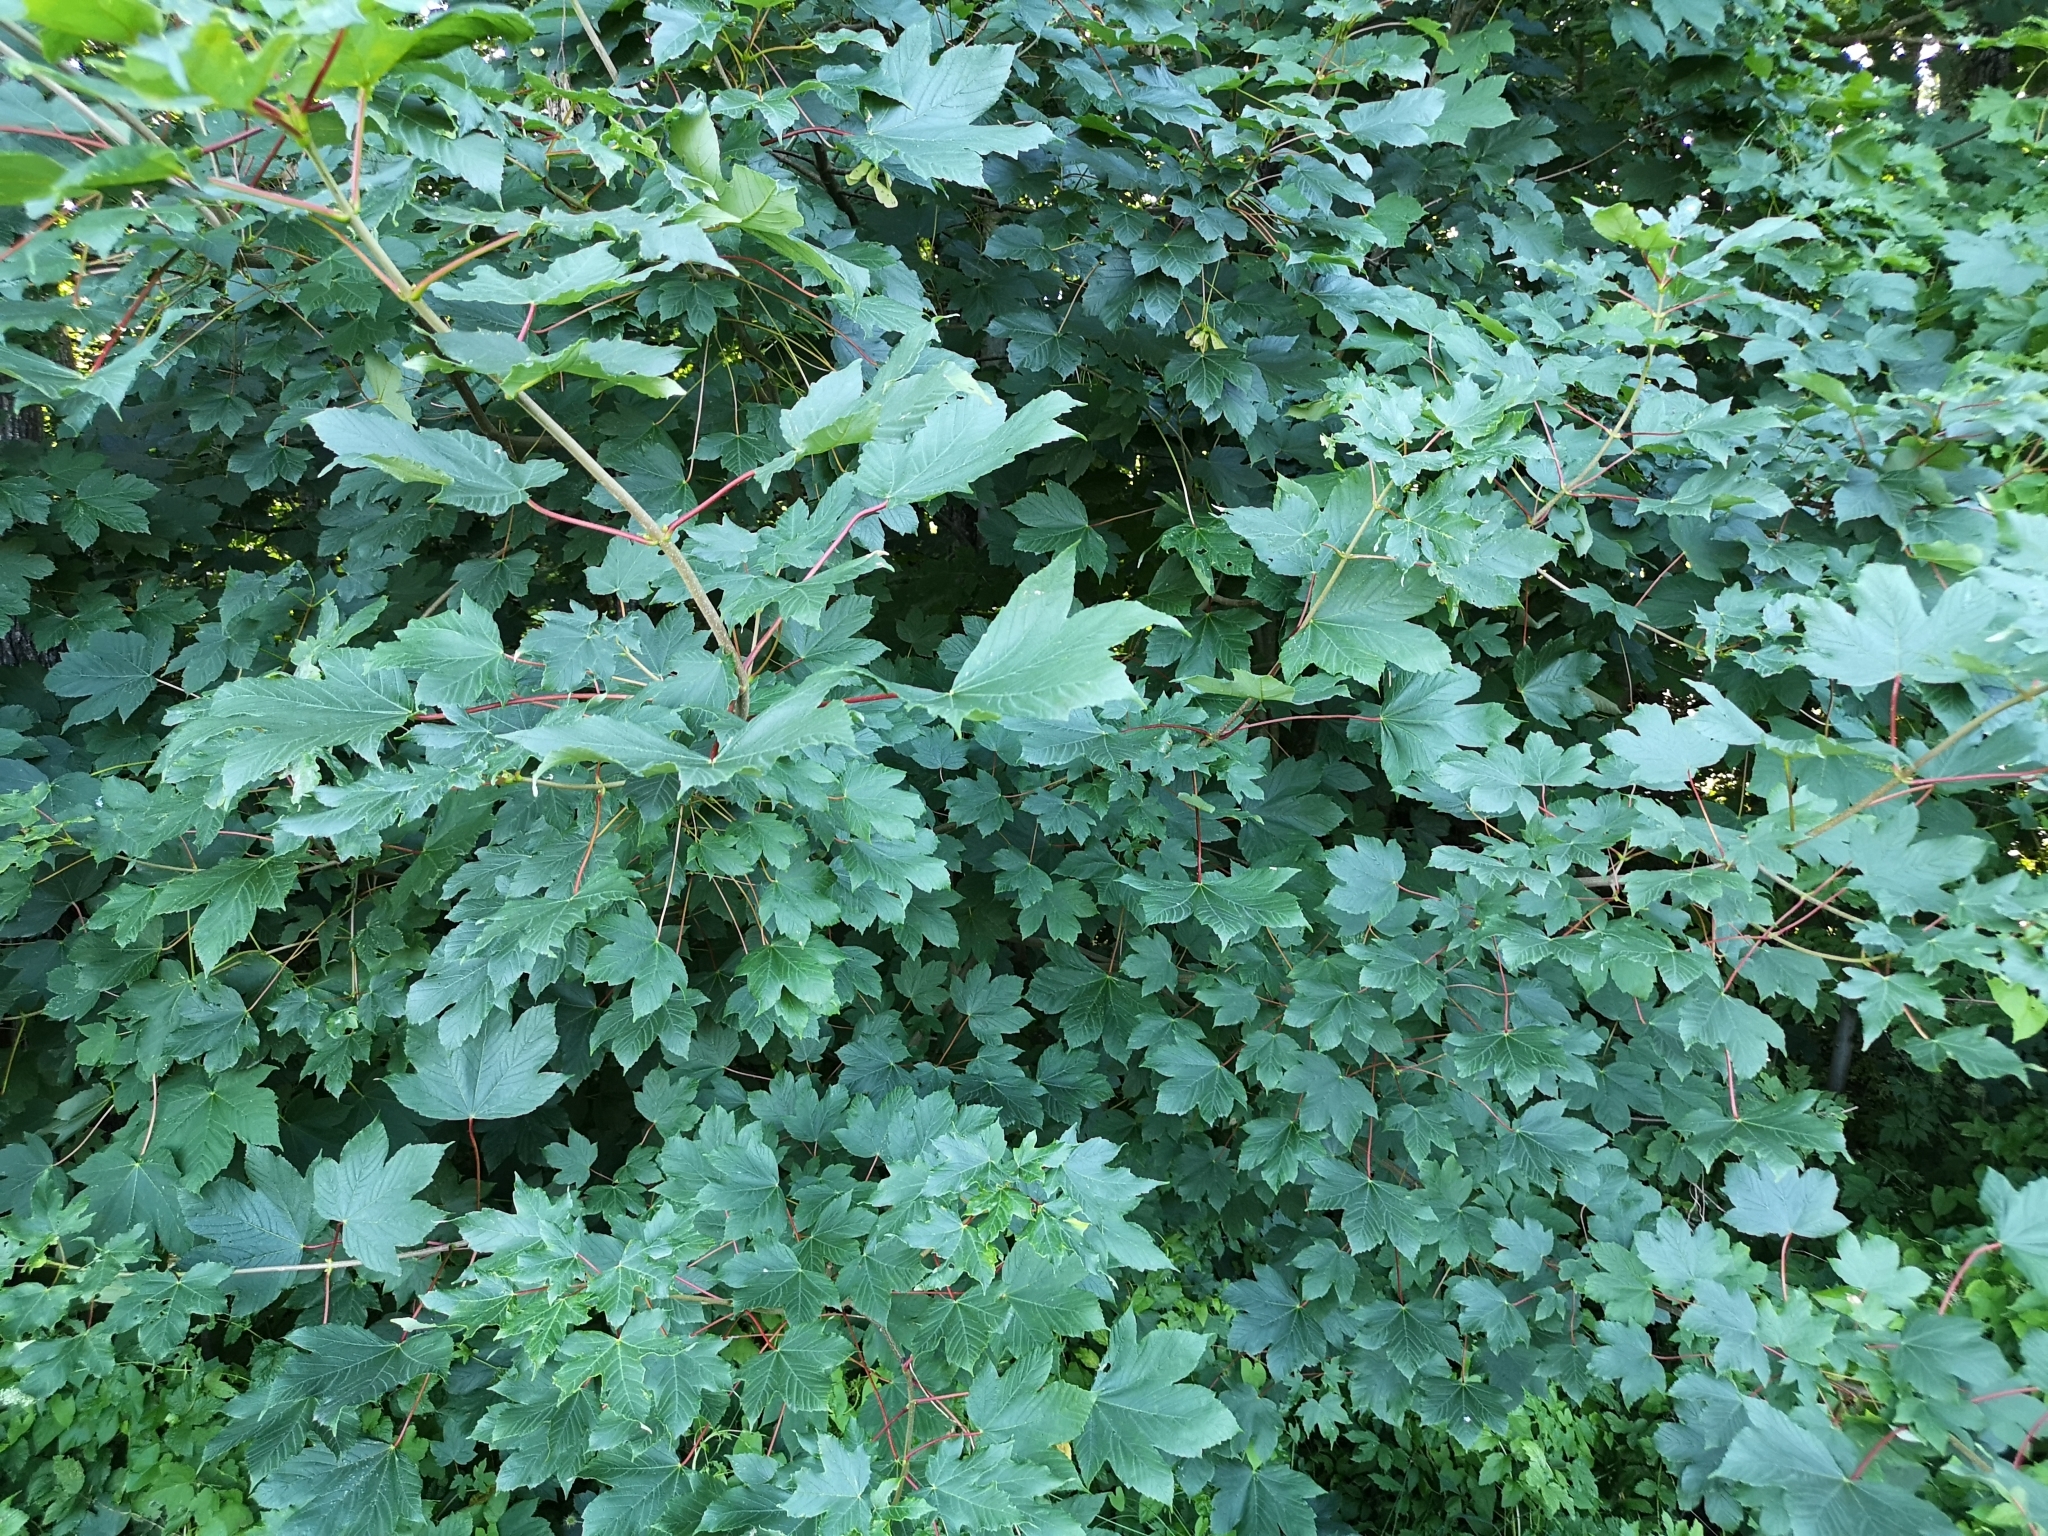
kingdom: Plantae
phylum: Tracheophyta
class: Magnoliopsida
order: Sapindales
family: Sapindaceae
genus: Acer
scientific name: Acer pseudoplatanus
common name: Sycamore
